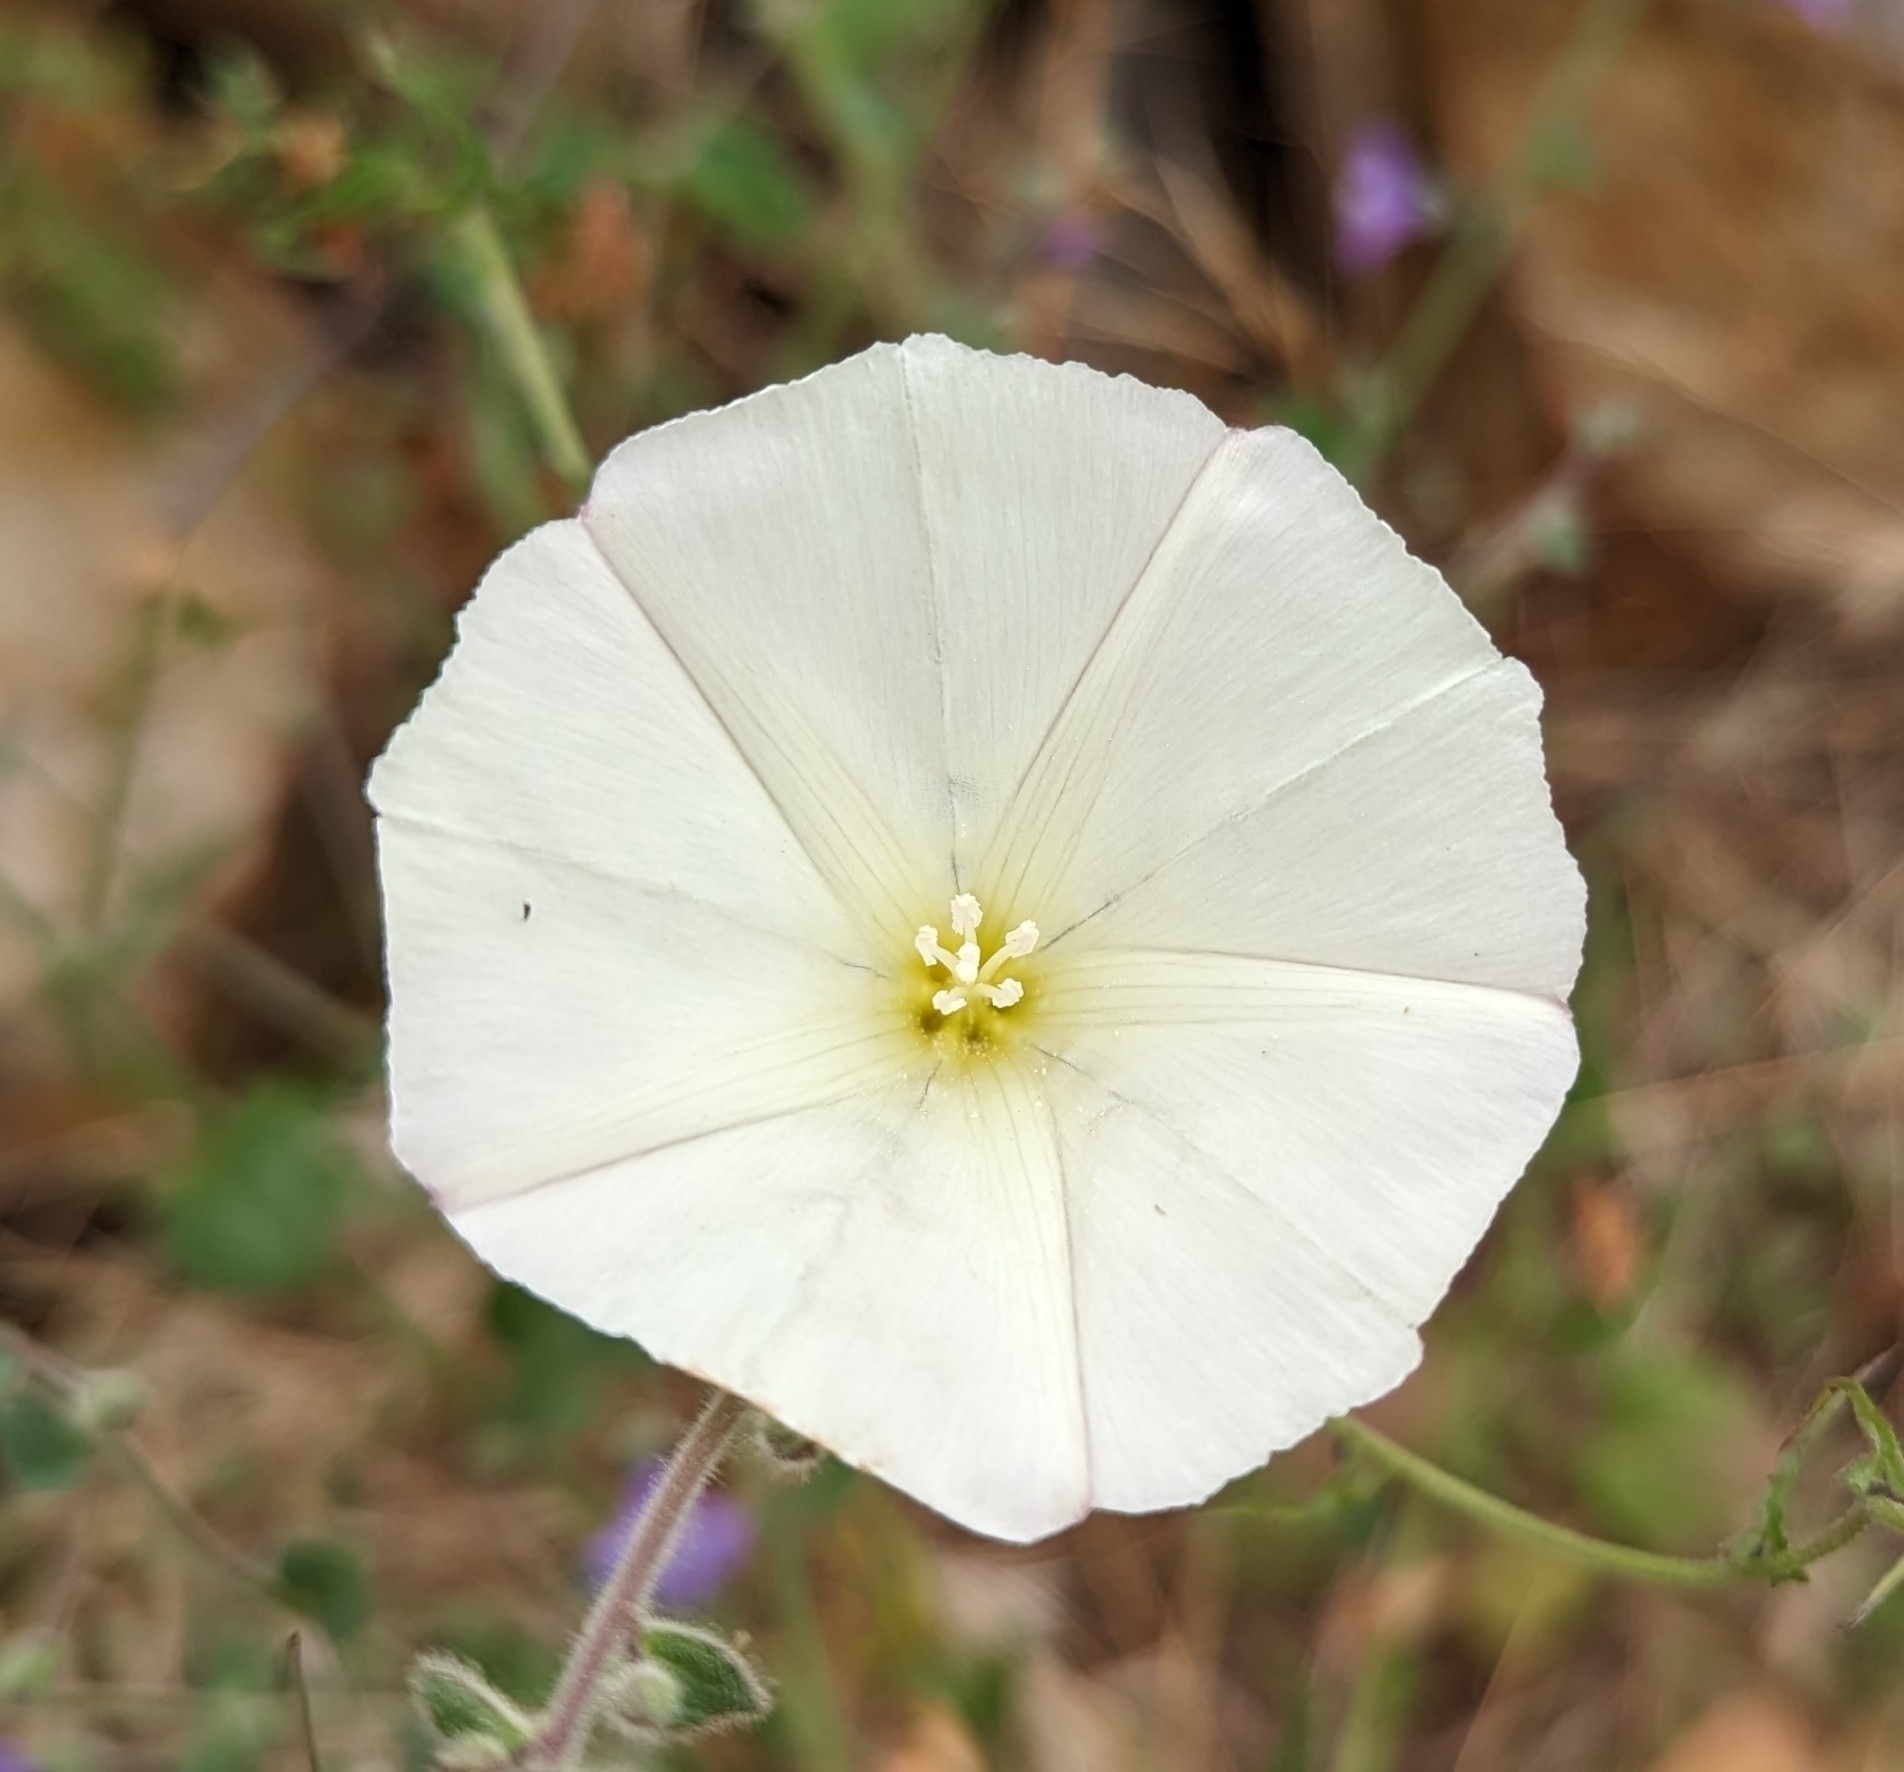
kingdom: Plantae
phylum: Tracheophyta
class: Magnoliopsida
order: Solanales
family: Convolvulaceae
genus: Calystegia
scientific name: Calystegia macrostegia
